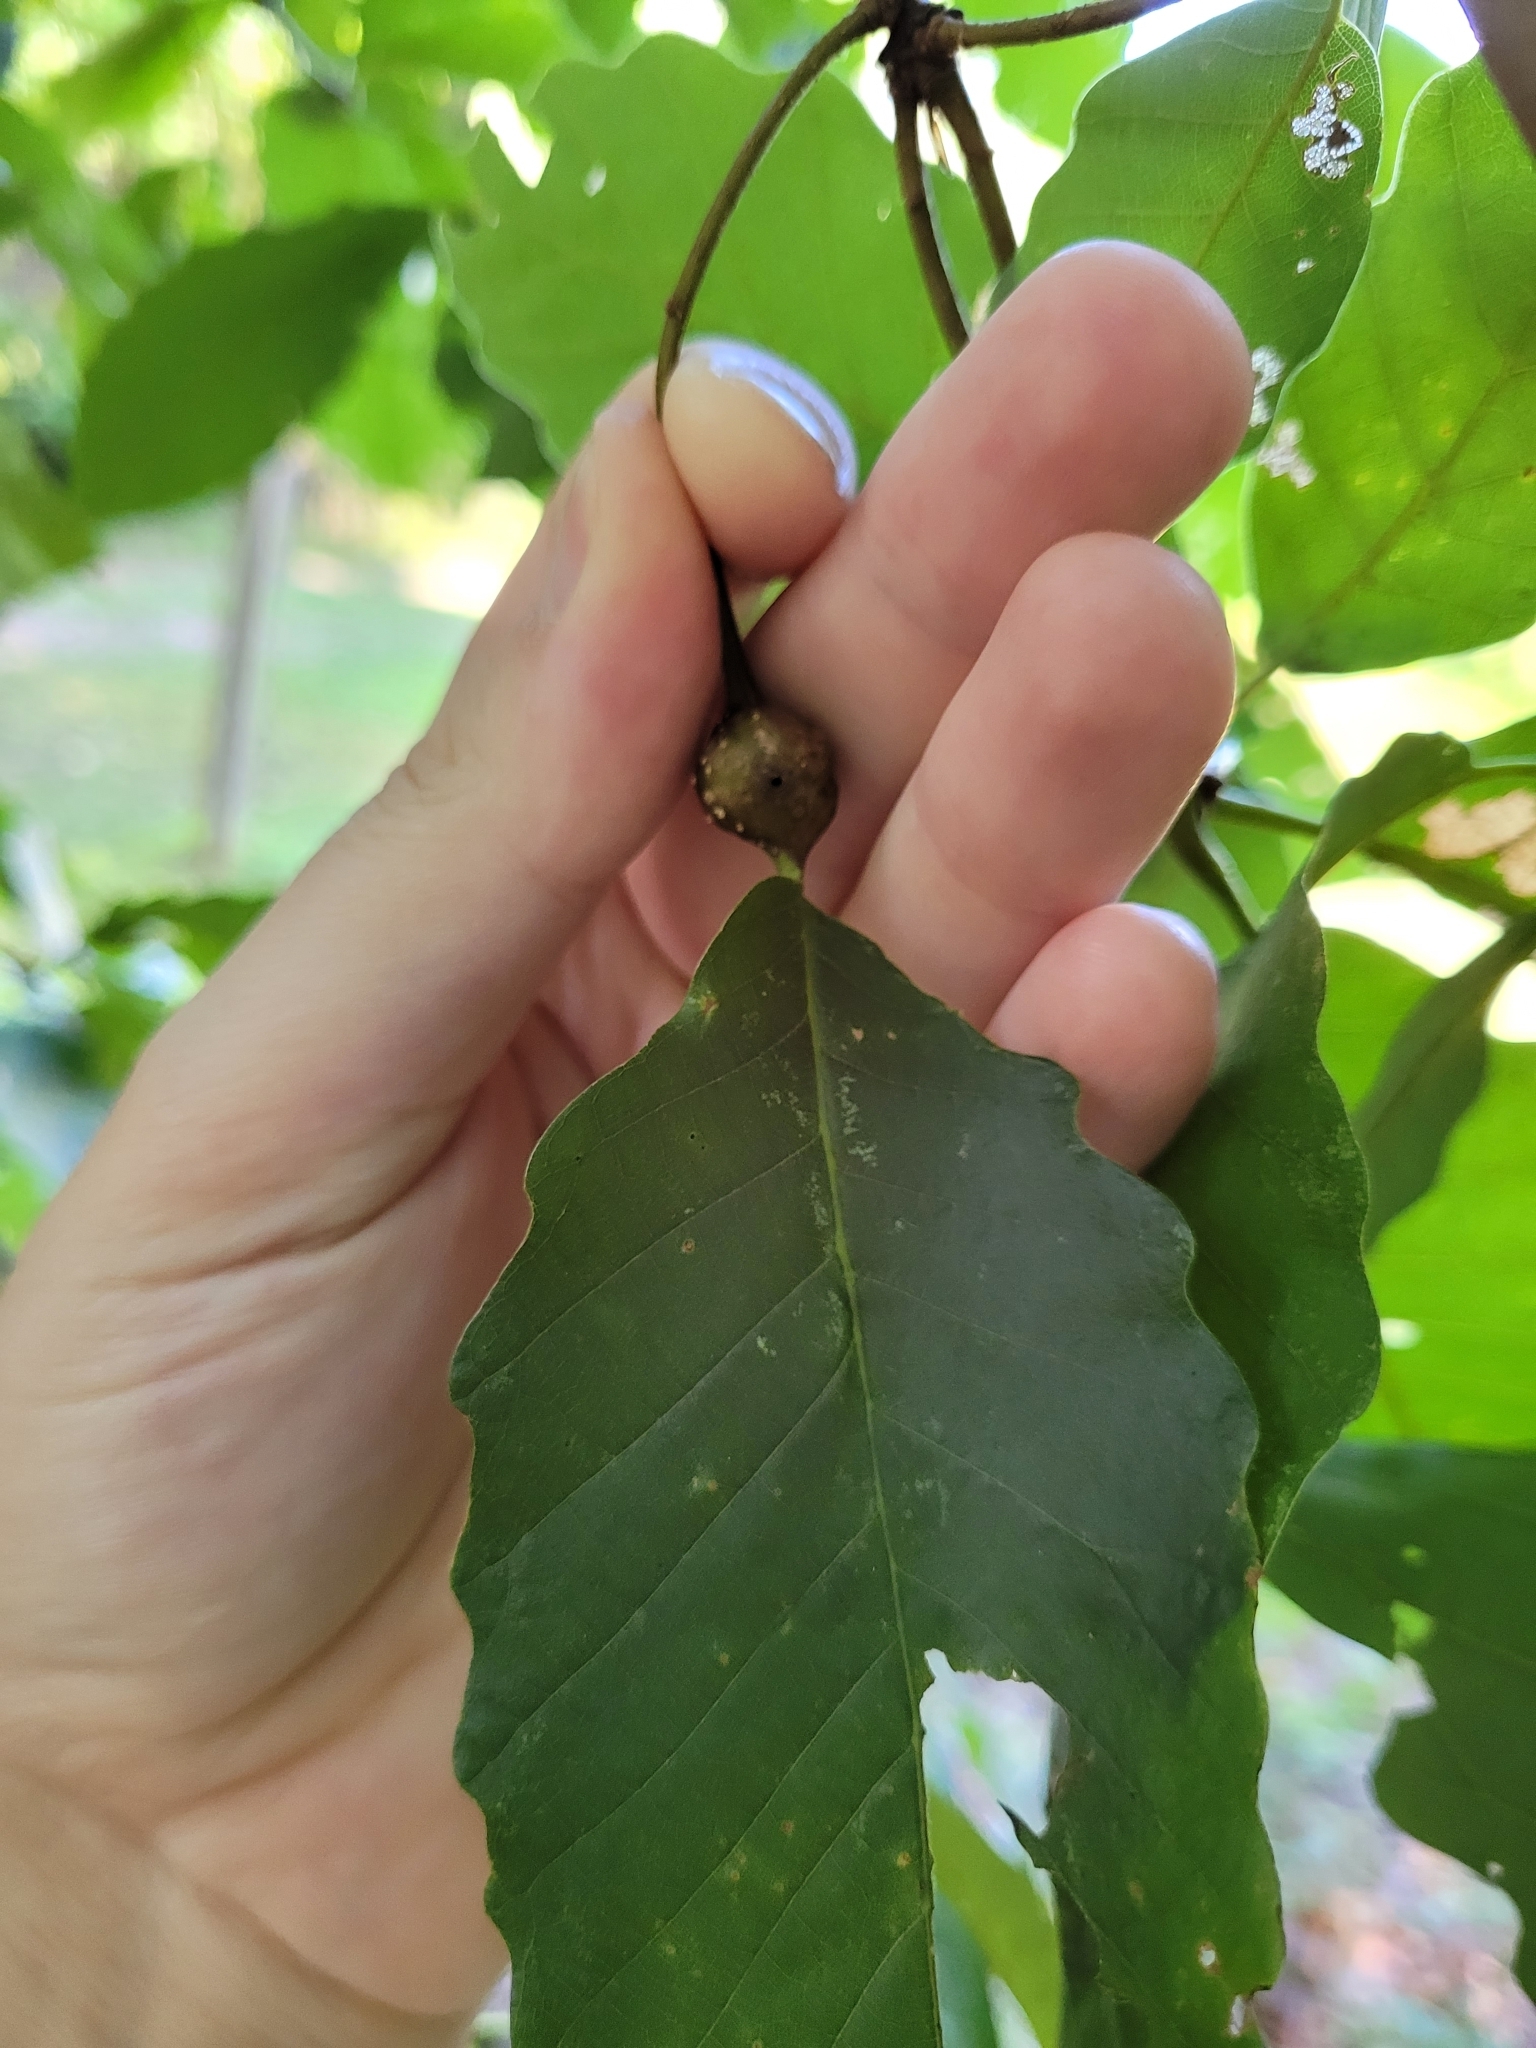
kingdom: Animalia
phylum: Arthropoda
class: Insecta
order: Hymenoptera
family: Cynipidae
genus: Andricus
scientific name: Andricus
